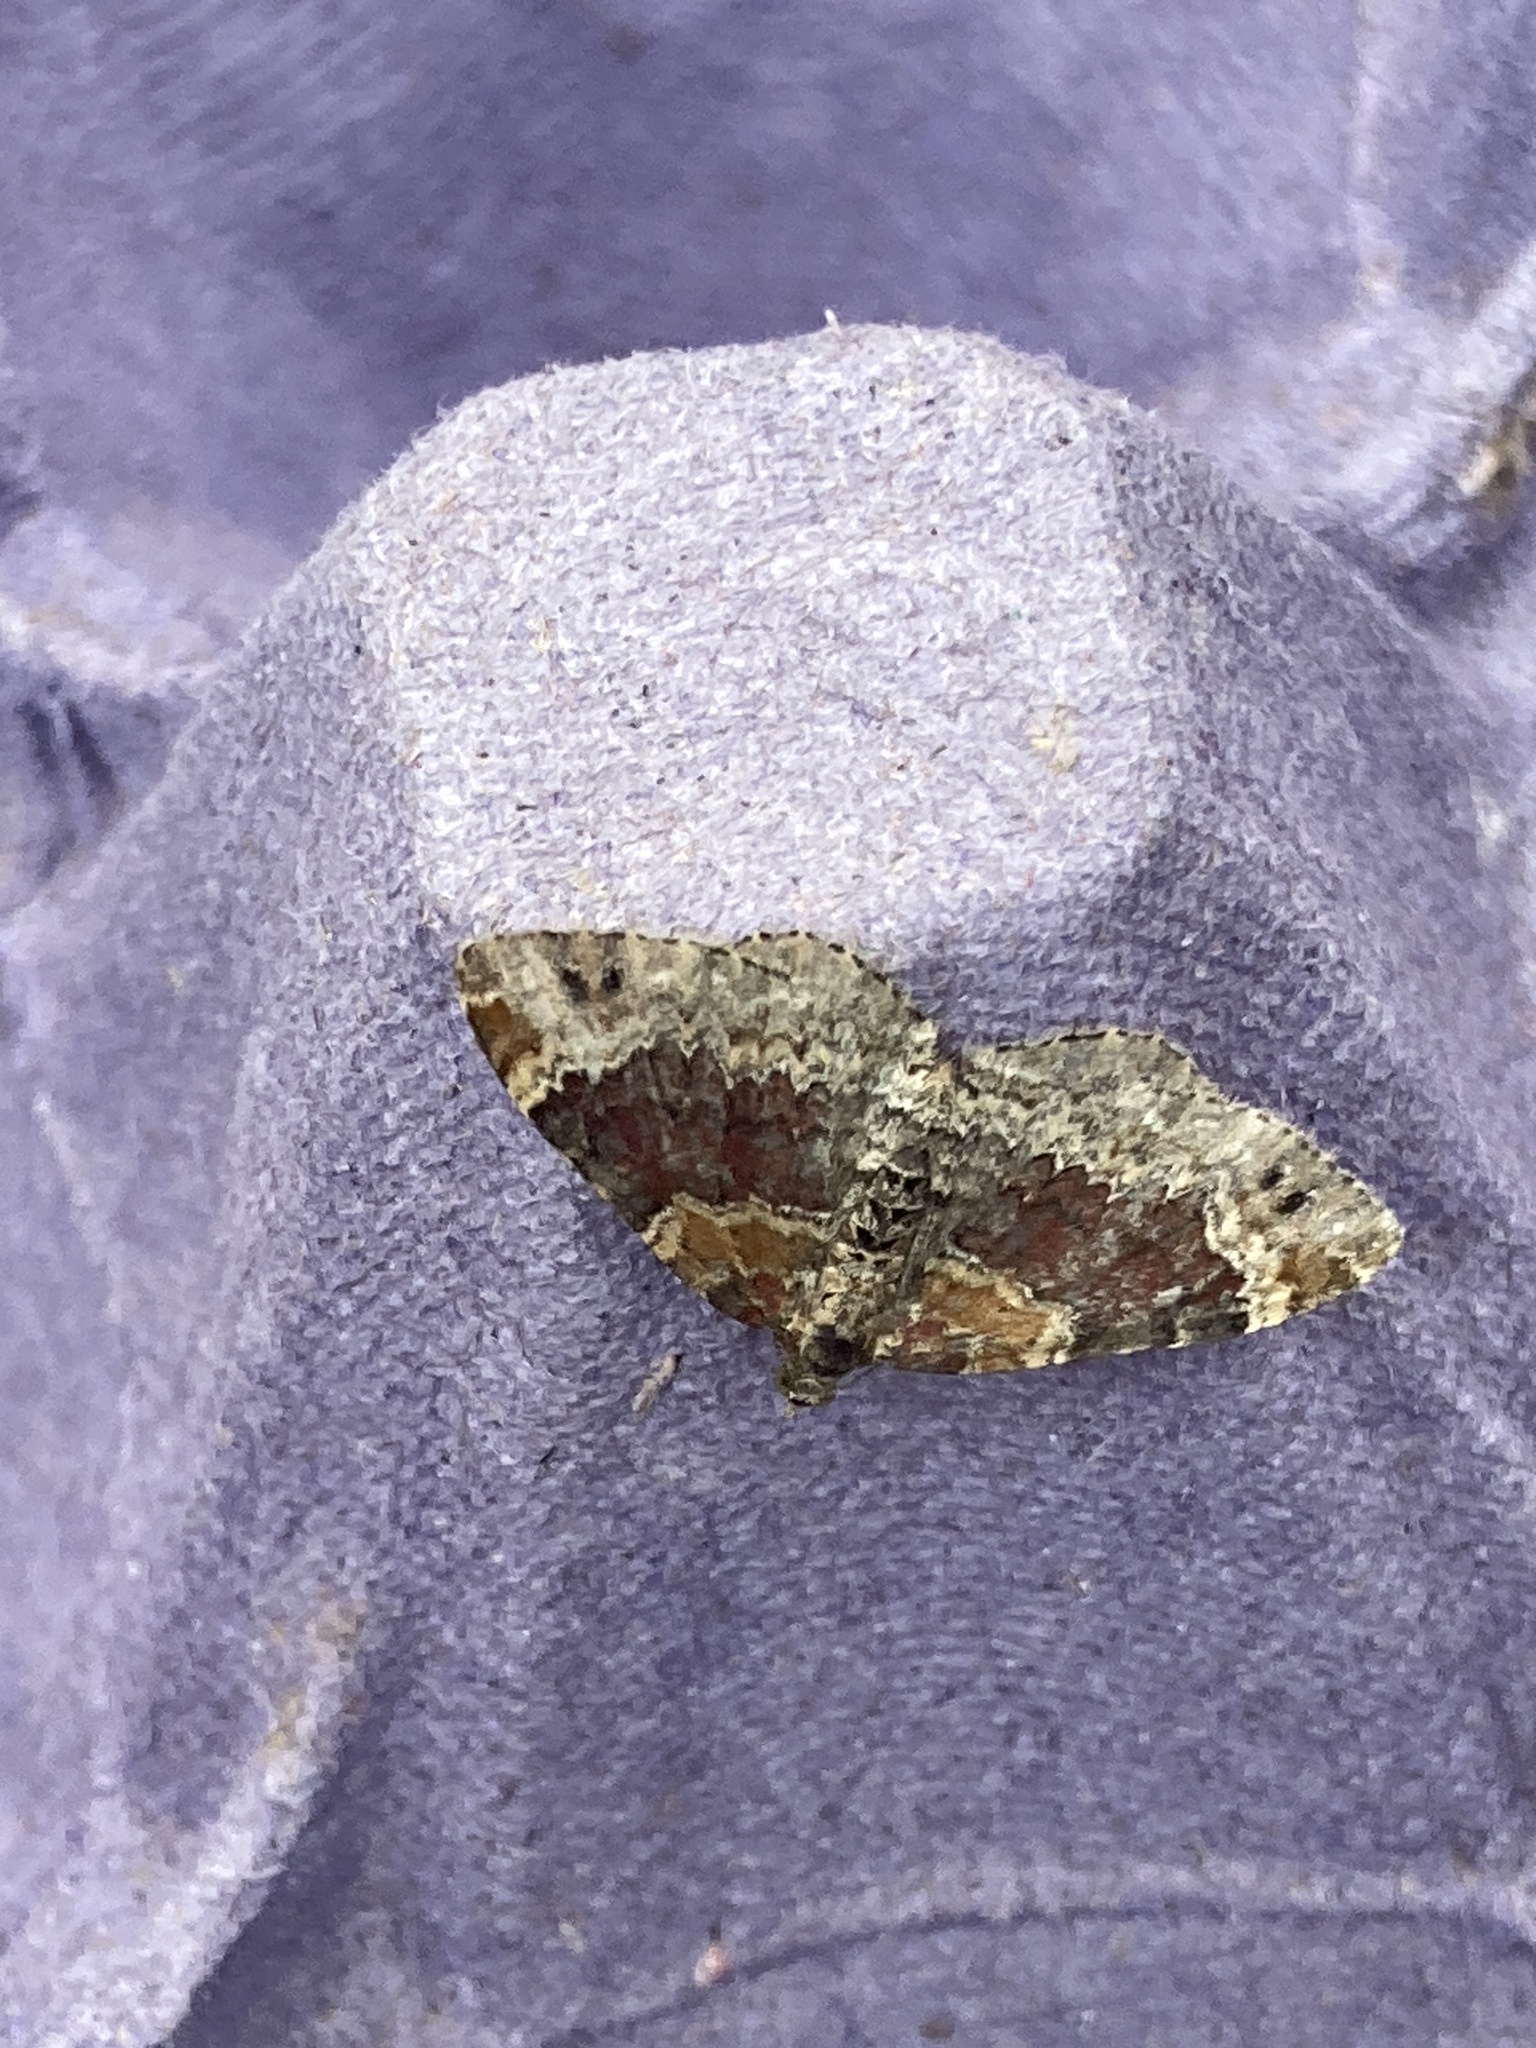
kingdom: Animalia
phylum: Arthropoda
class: Insecta
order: Lepidoptera
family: Geometridae
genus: Xanthorhoe
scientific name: Xanthorhoe spadicearia
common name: Red twin-spot carpet
